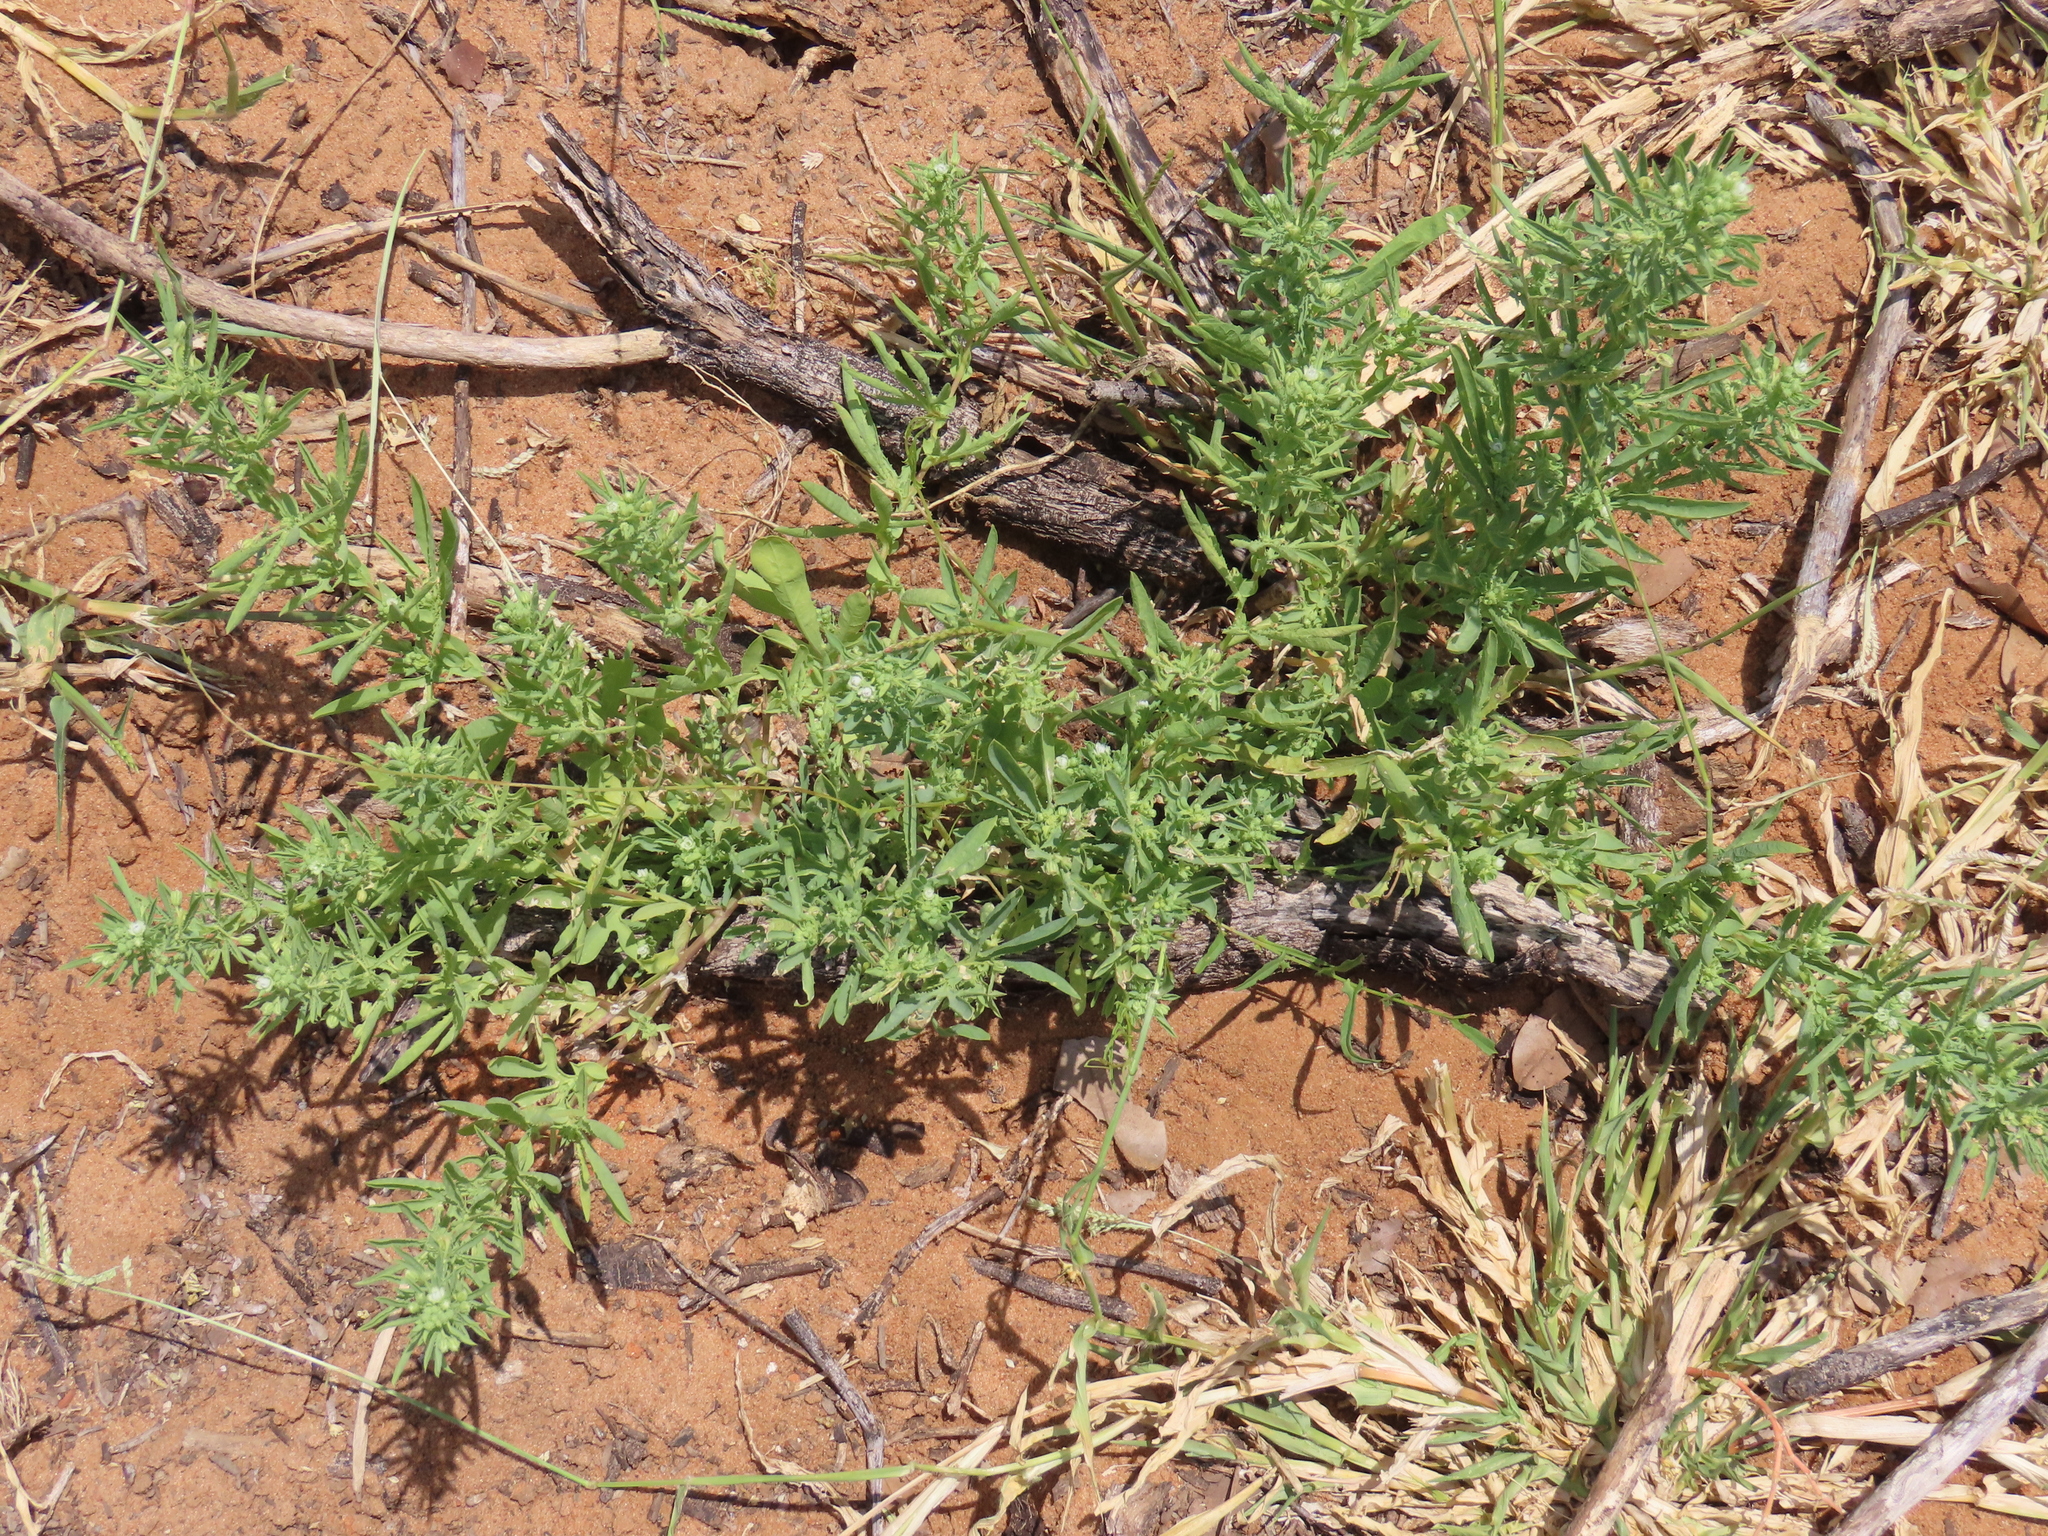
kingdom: Plantae
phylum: Tracheophyta
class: Magnoliopsida
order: Malpighiales
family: Passifloraceae
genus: Basananthe
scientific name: Basananthe pedata
